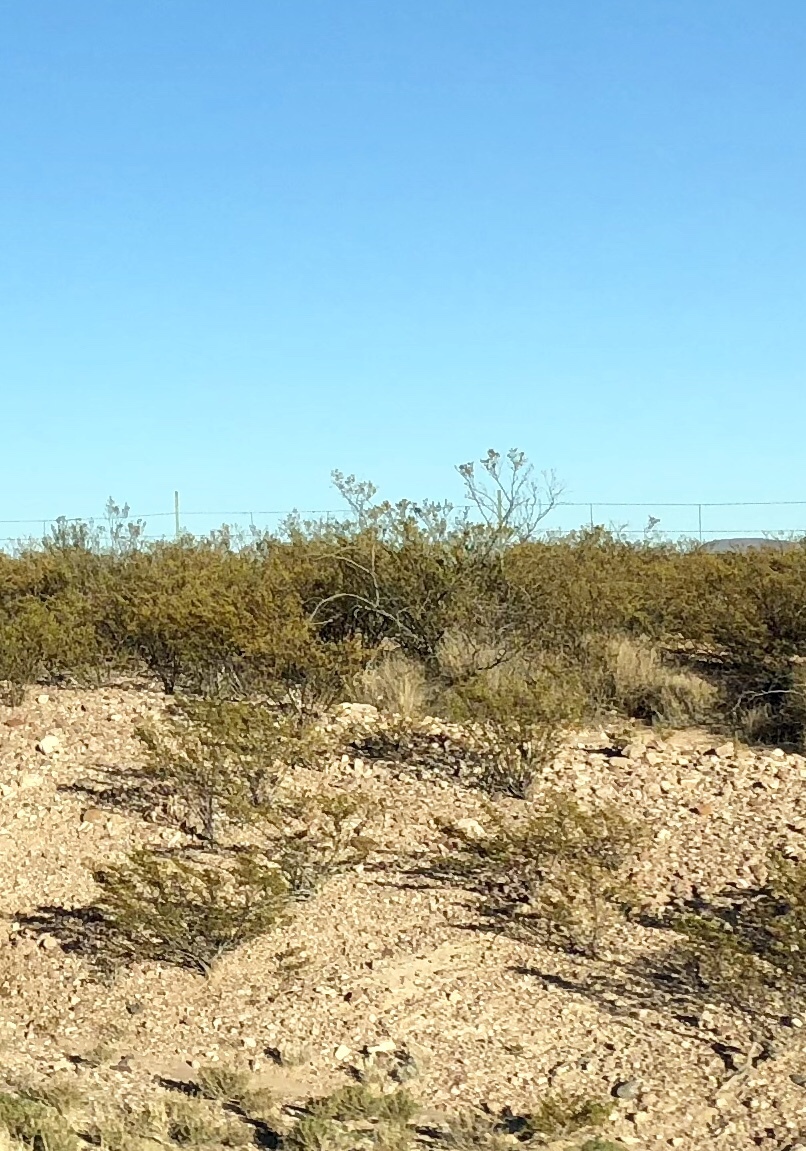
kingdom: Plantae
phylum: Tracheophyta
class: Magnoliopsida
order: Zygophyllales
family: Zygophyllaceae
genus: Larrea
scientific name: Larrea tridentata
